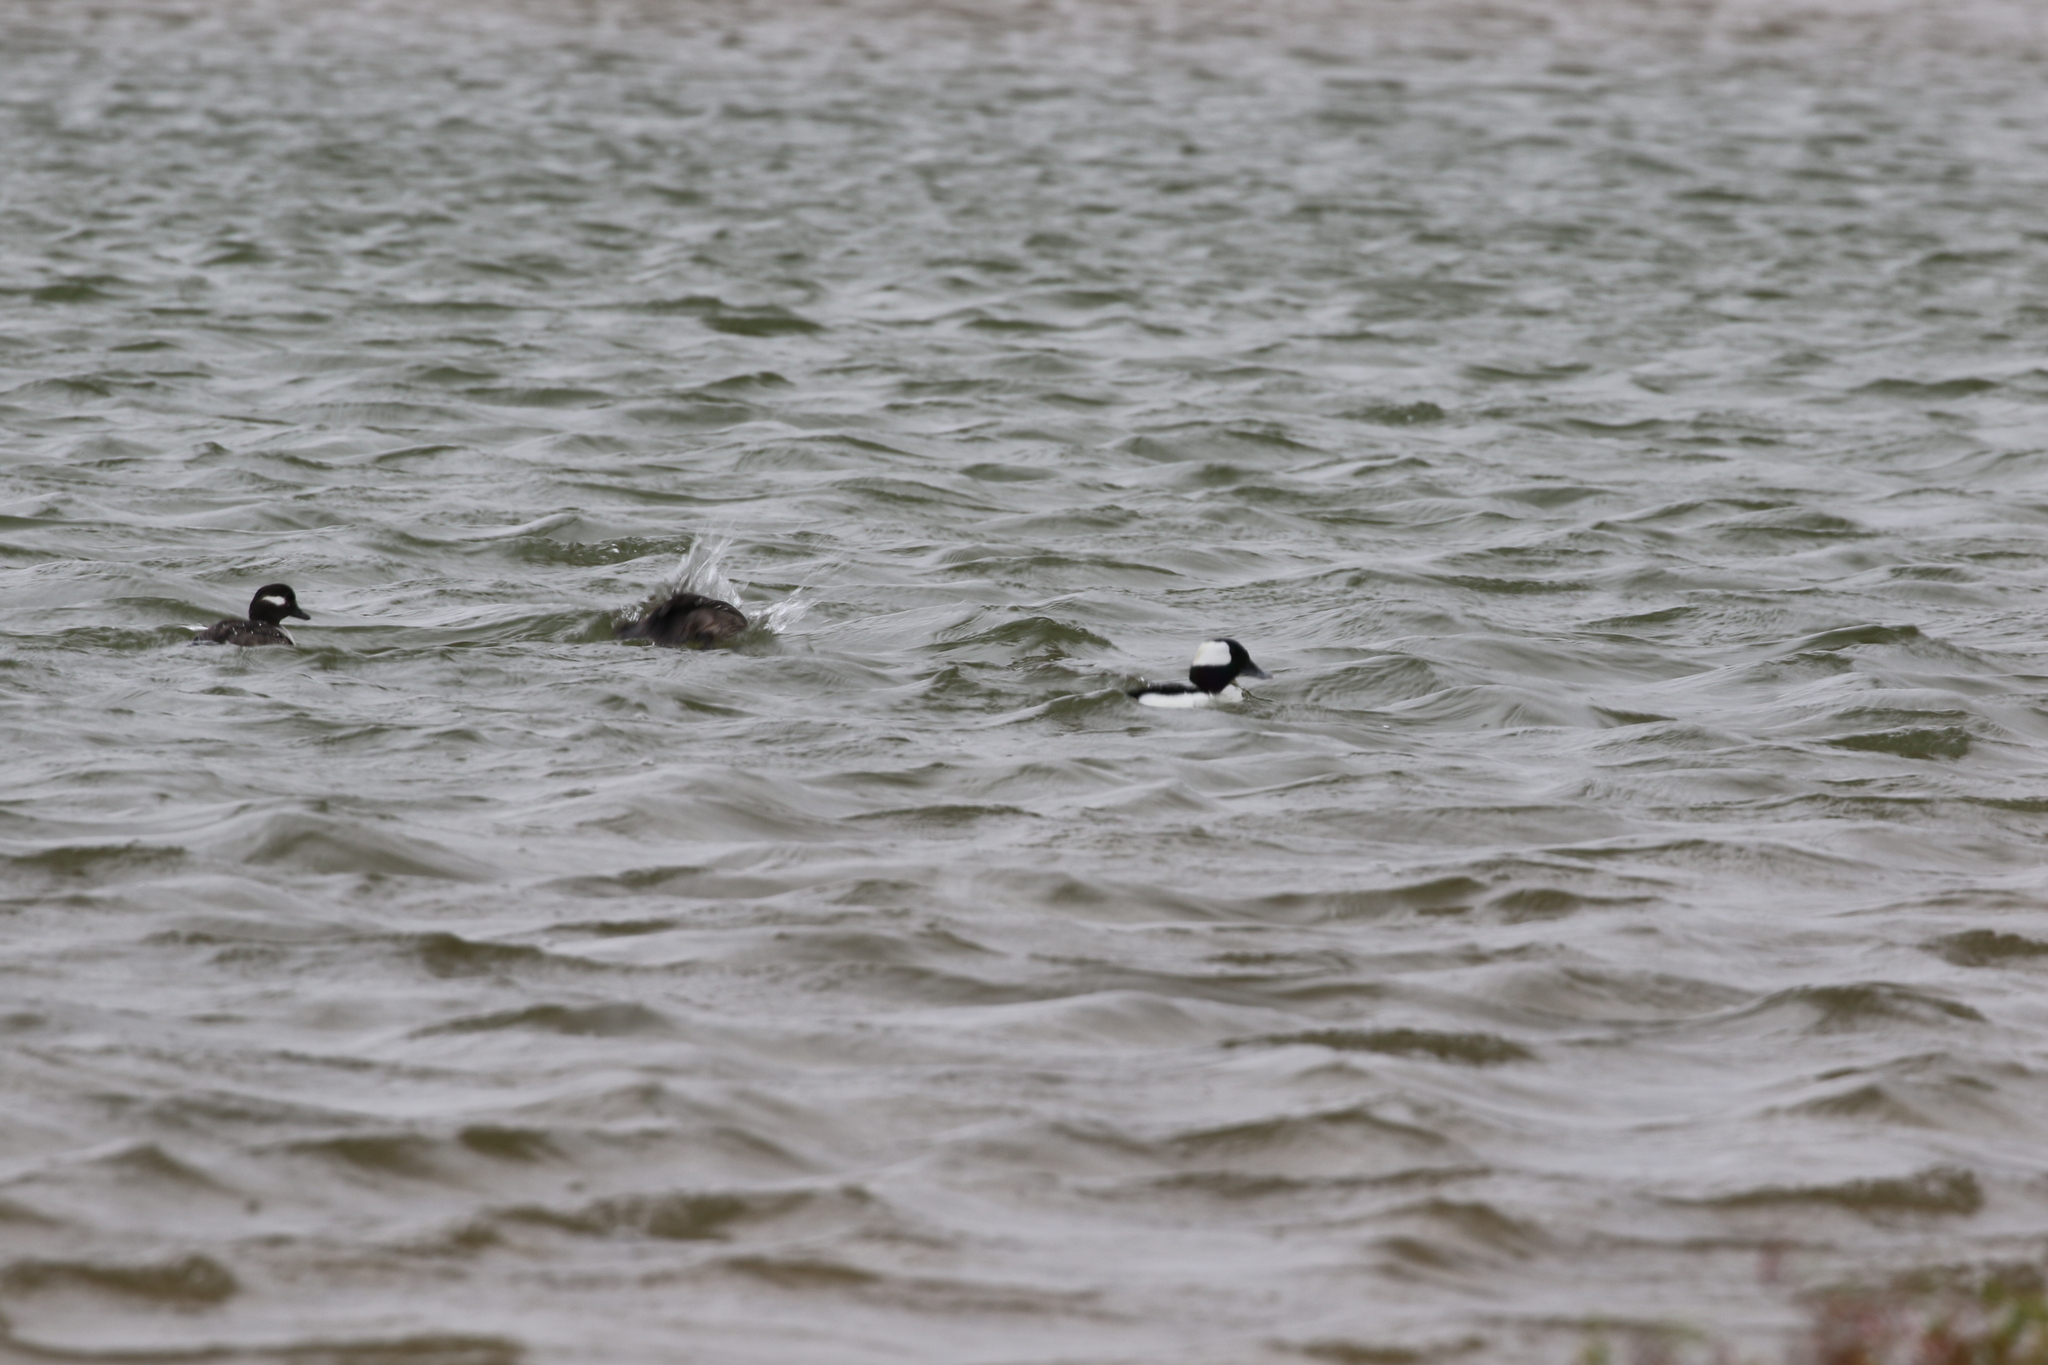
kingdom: Animalia
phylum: Chordata
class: Aves
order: Anseriformes
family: Anatidae
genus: Bucephala
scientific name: Bucephala albeola
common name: Bufflehead
